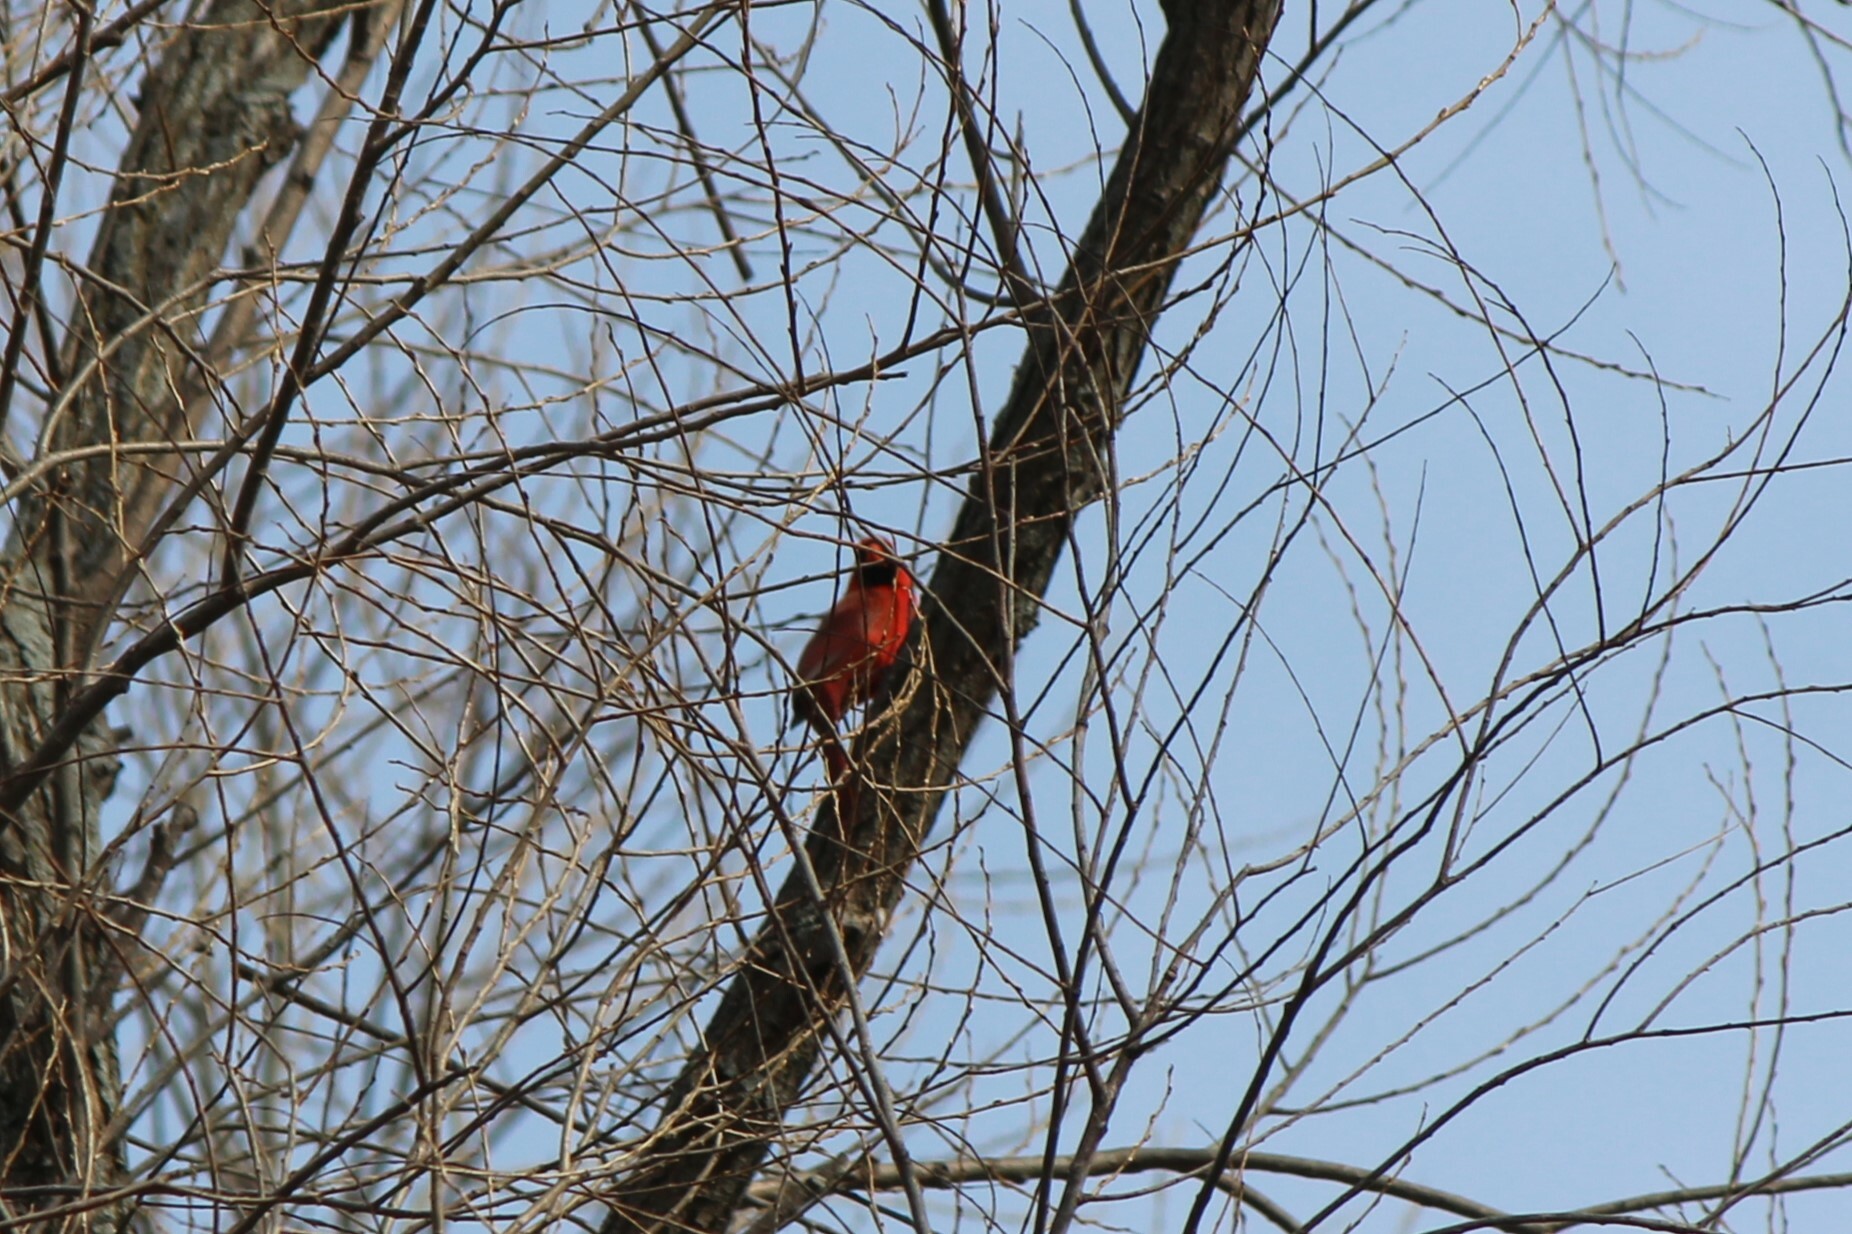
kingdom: Animalia
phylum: Chordata
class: Aves
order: Passeriformes
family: Cardinalidae
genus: Cardinalis
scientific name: Cardinalis cardinalis
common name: Northern cardinal
